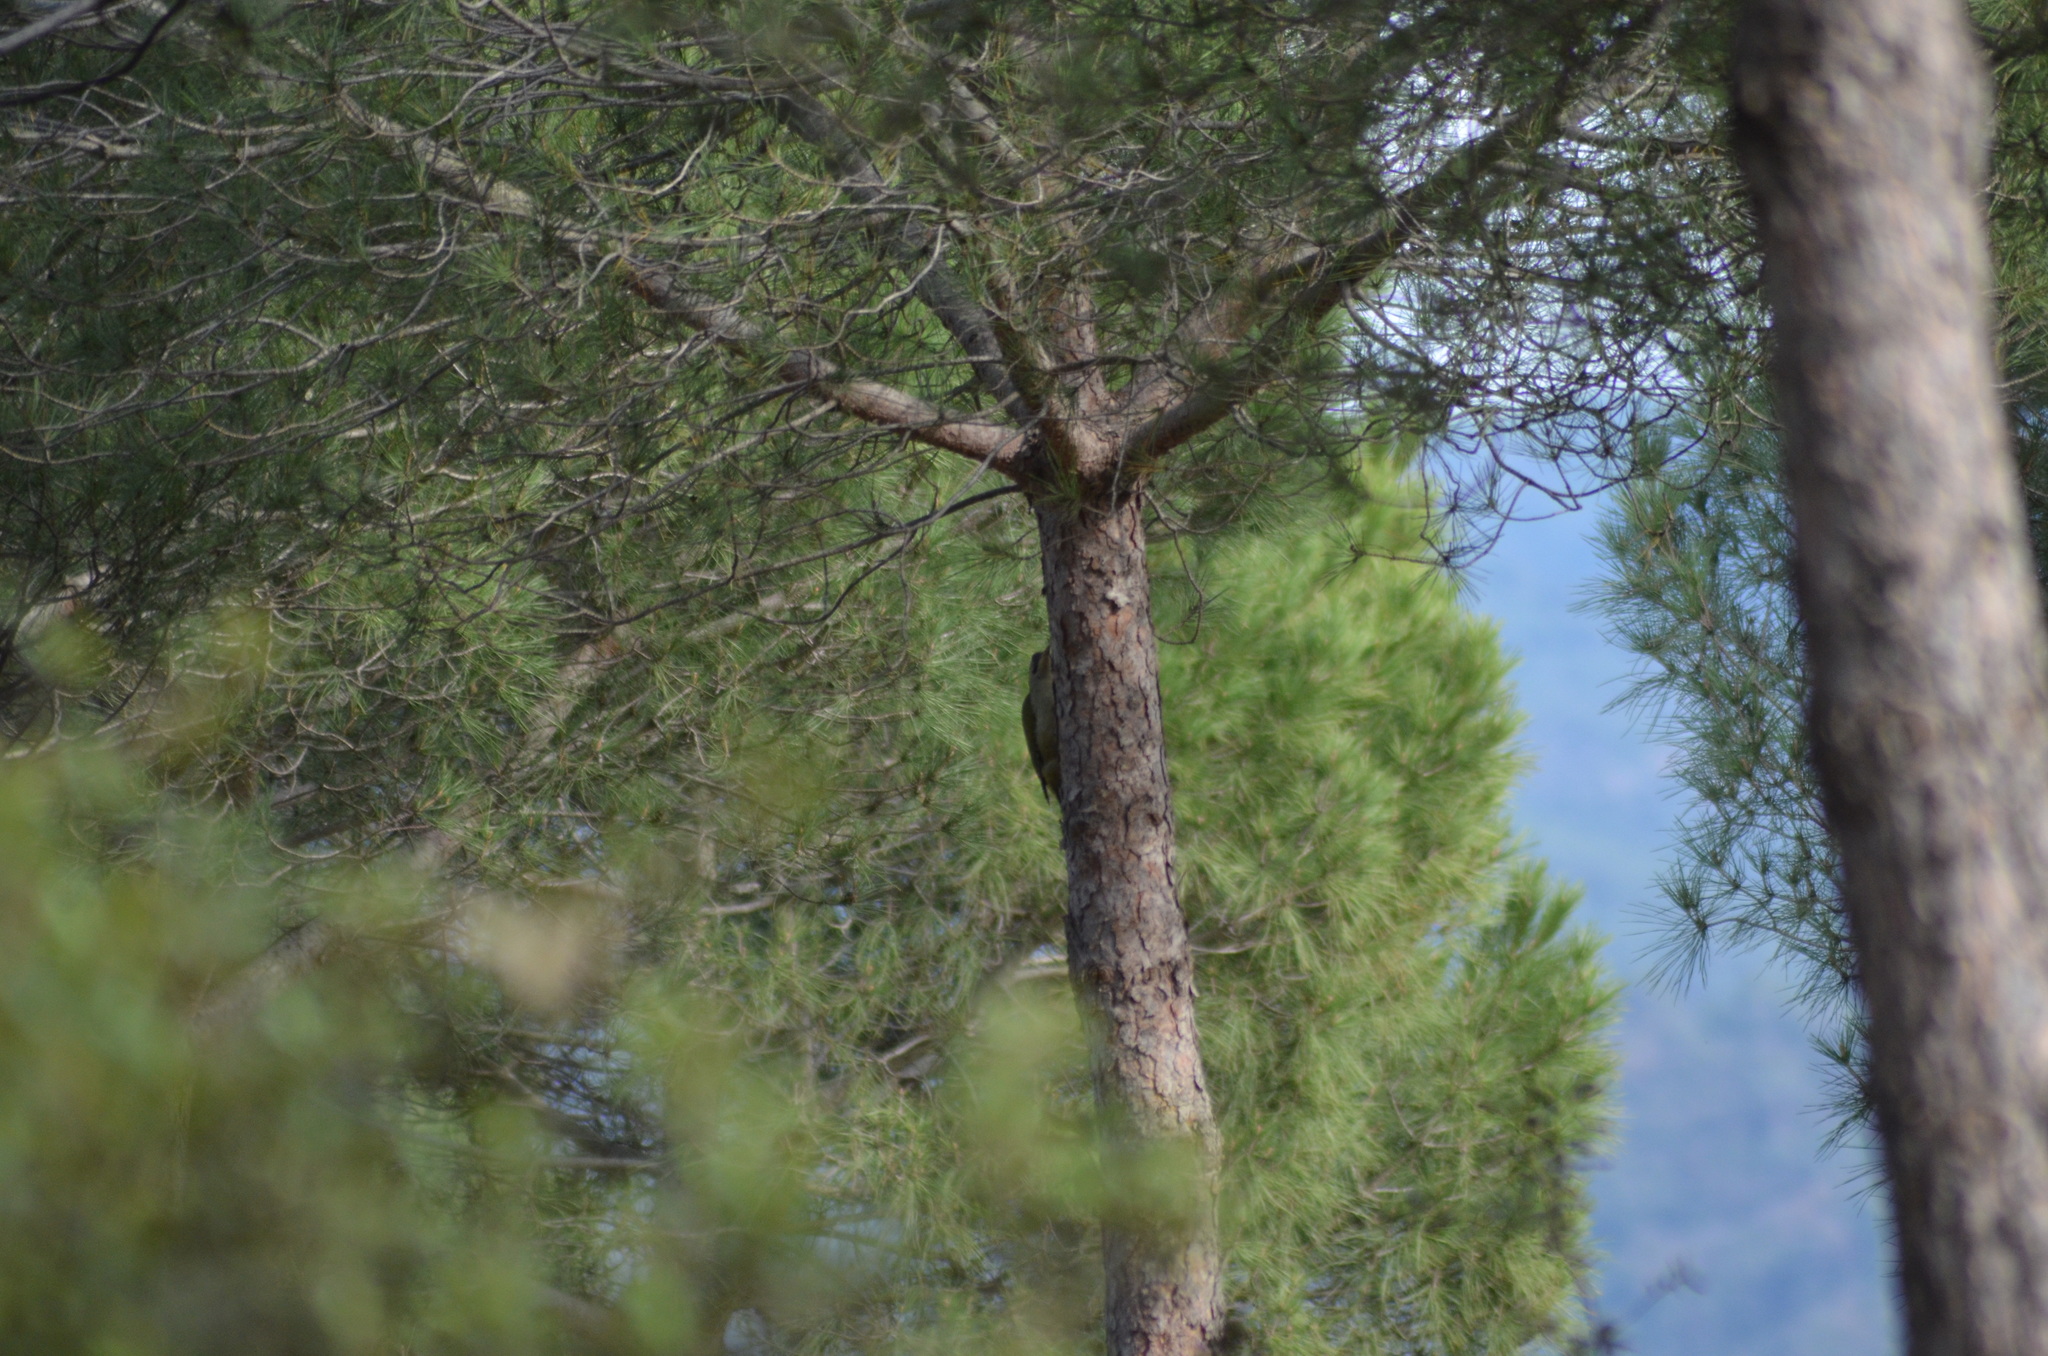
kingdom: Animalia
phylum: Chordata
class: Aves
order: Piciformes
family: Picidae
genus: Picus
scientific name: Picus sharpei
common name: Iberian green woodpecker
